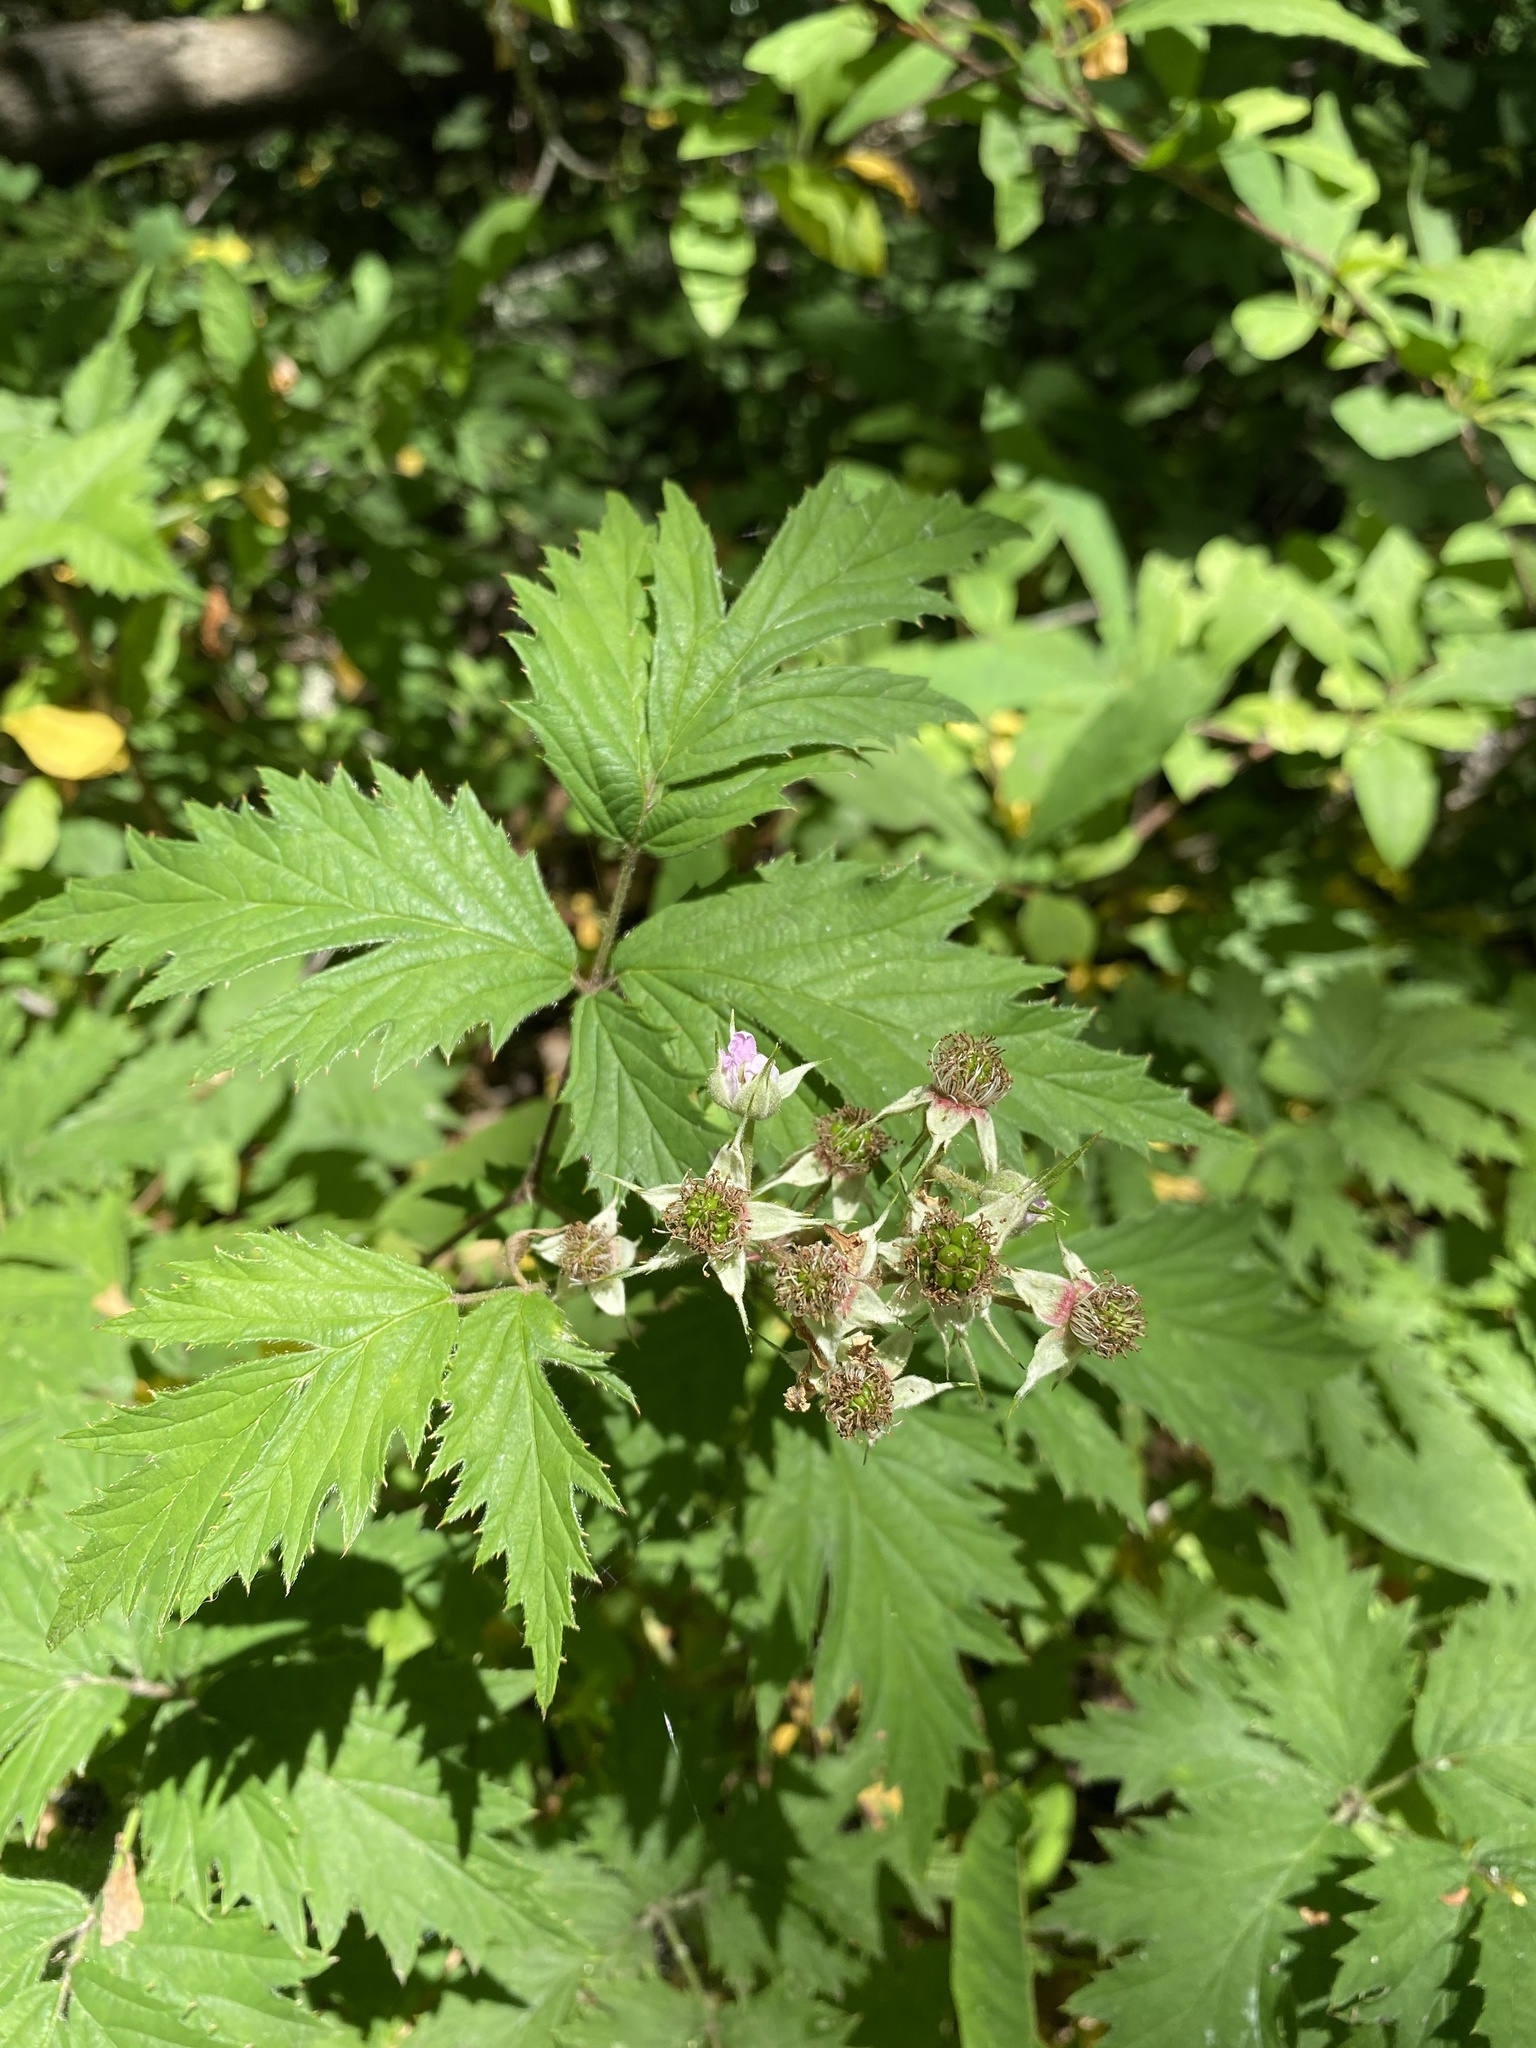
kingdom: Plantae
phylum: Tracheophyta
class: Magnoliopsida
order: Rosales
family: Rosaceae
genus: Rubus
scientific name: Rubus laciniatus
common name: Evergreen blackberry
